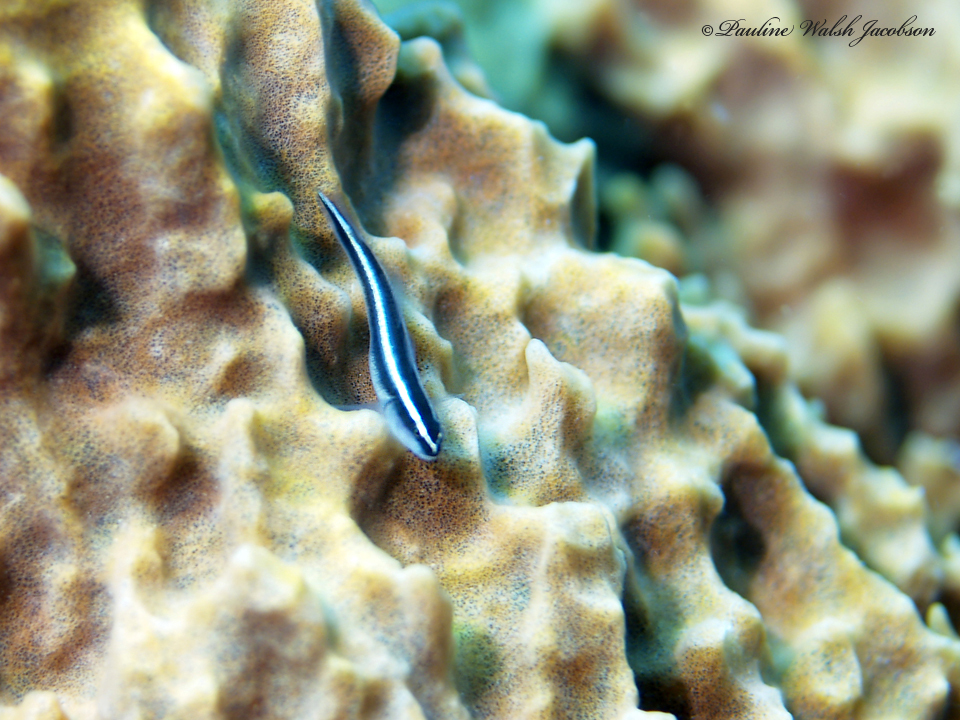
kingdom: Animalia
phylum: Chordata
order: Perciformes
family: Gobiidae
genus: Elacatinus
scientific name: Elacatinus prochilos
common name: Broadstripe goby
